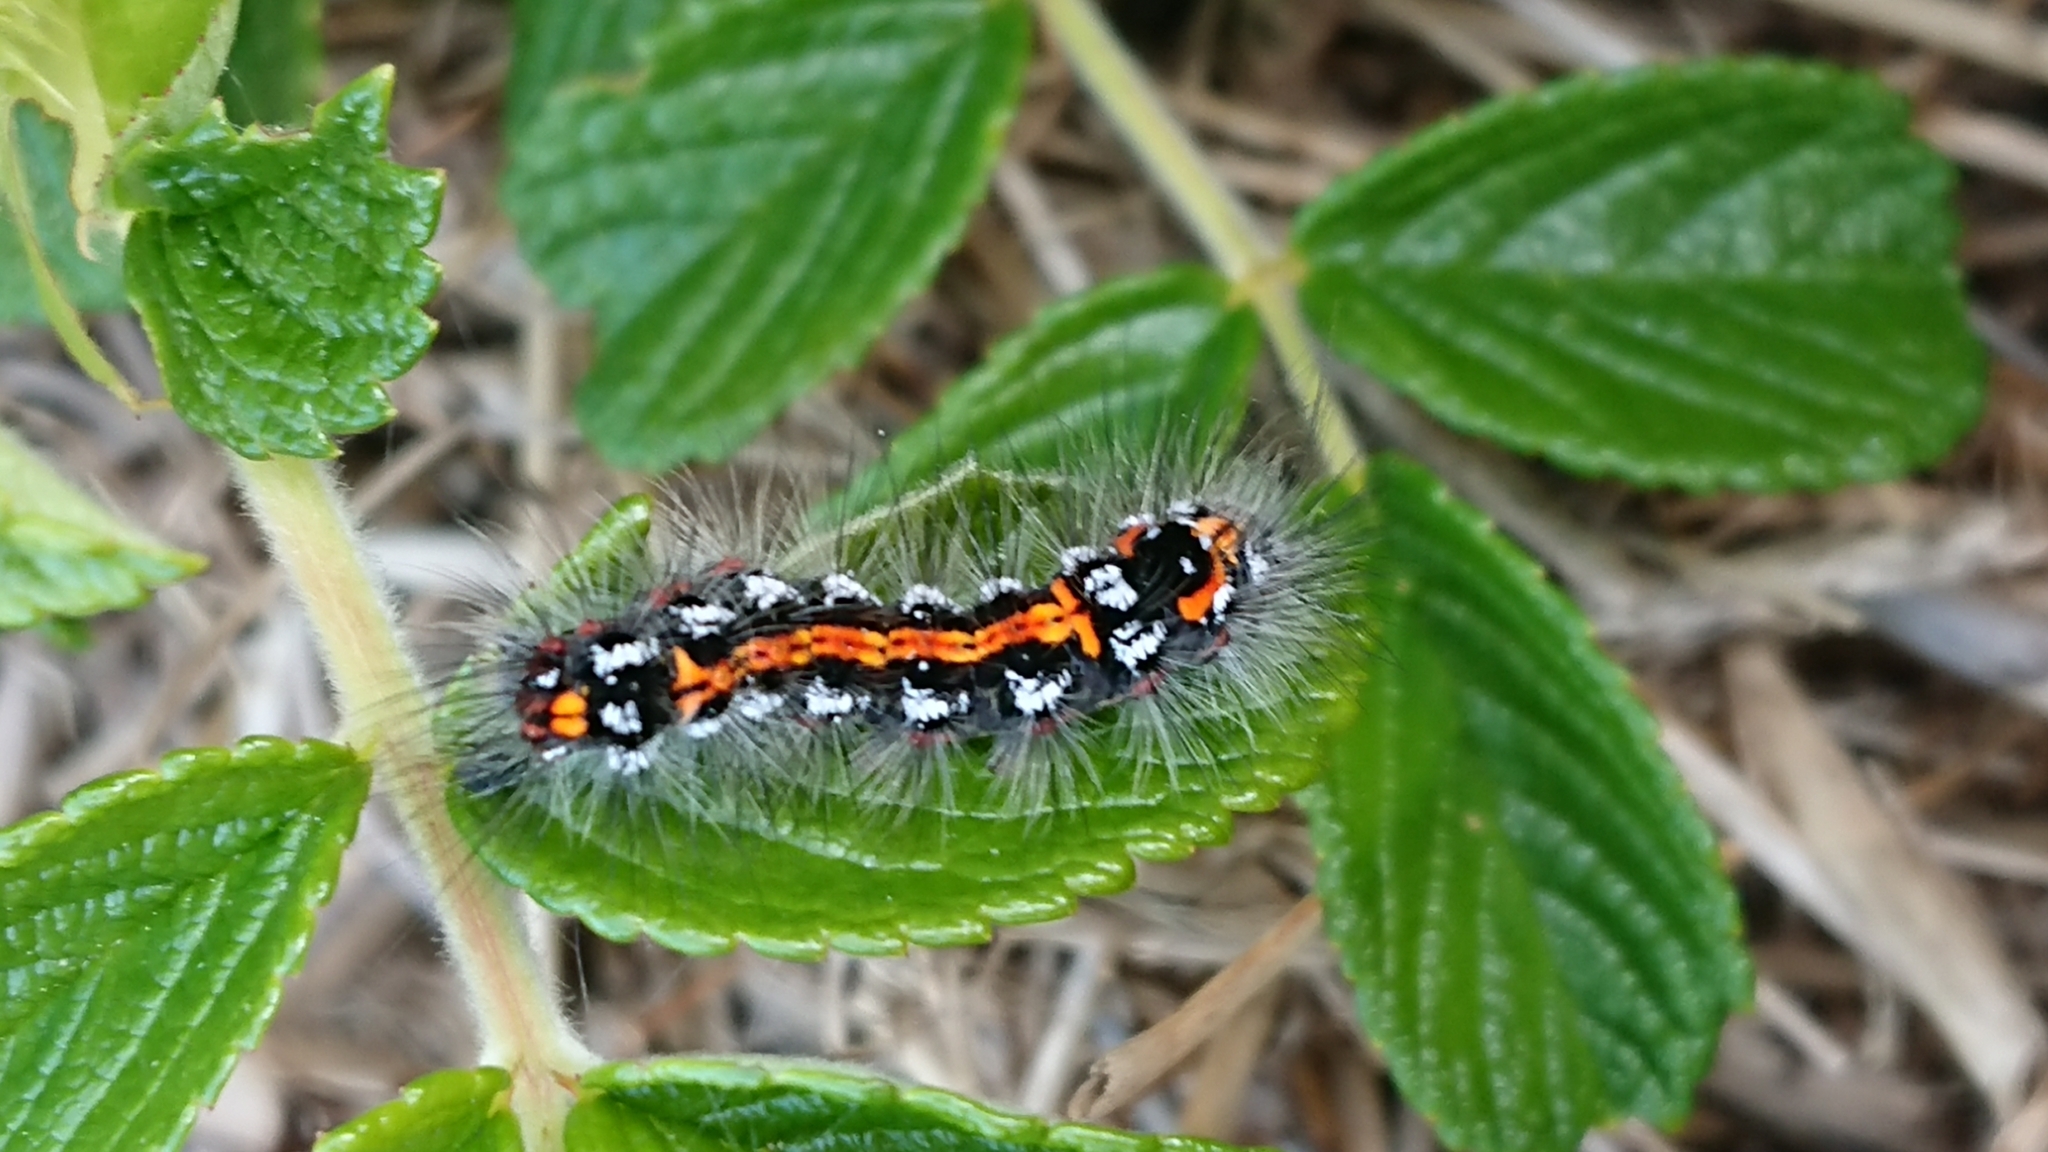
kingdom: Animalia
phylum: Arthropoda
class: Insecta
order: Lepidoptera
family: Erebidae
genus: Sphrageidus
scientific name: Sphrageidus similis
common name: Yellow-tail
